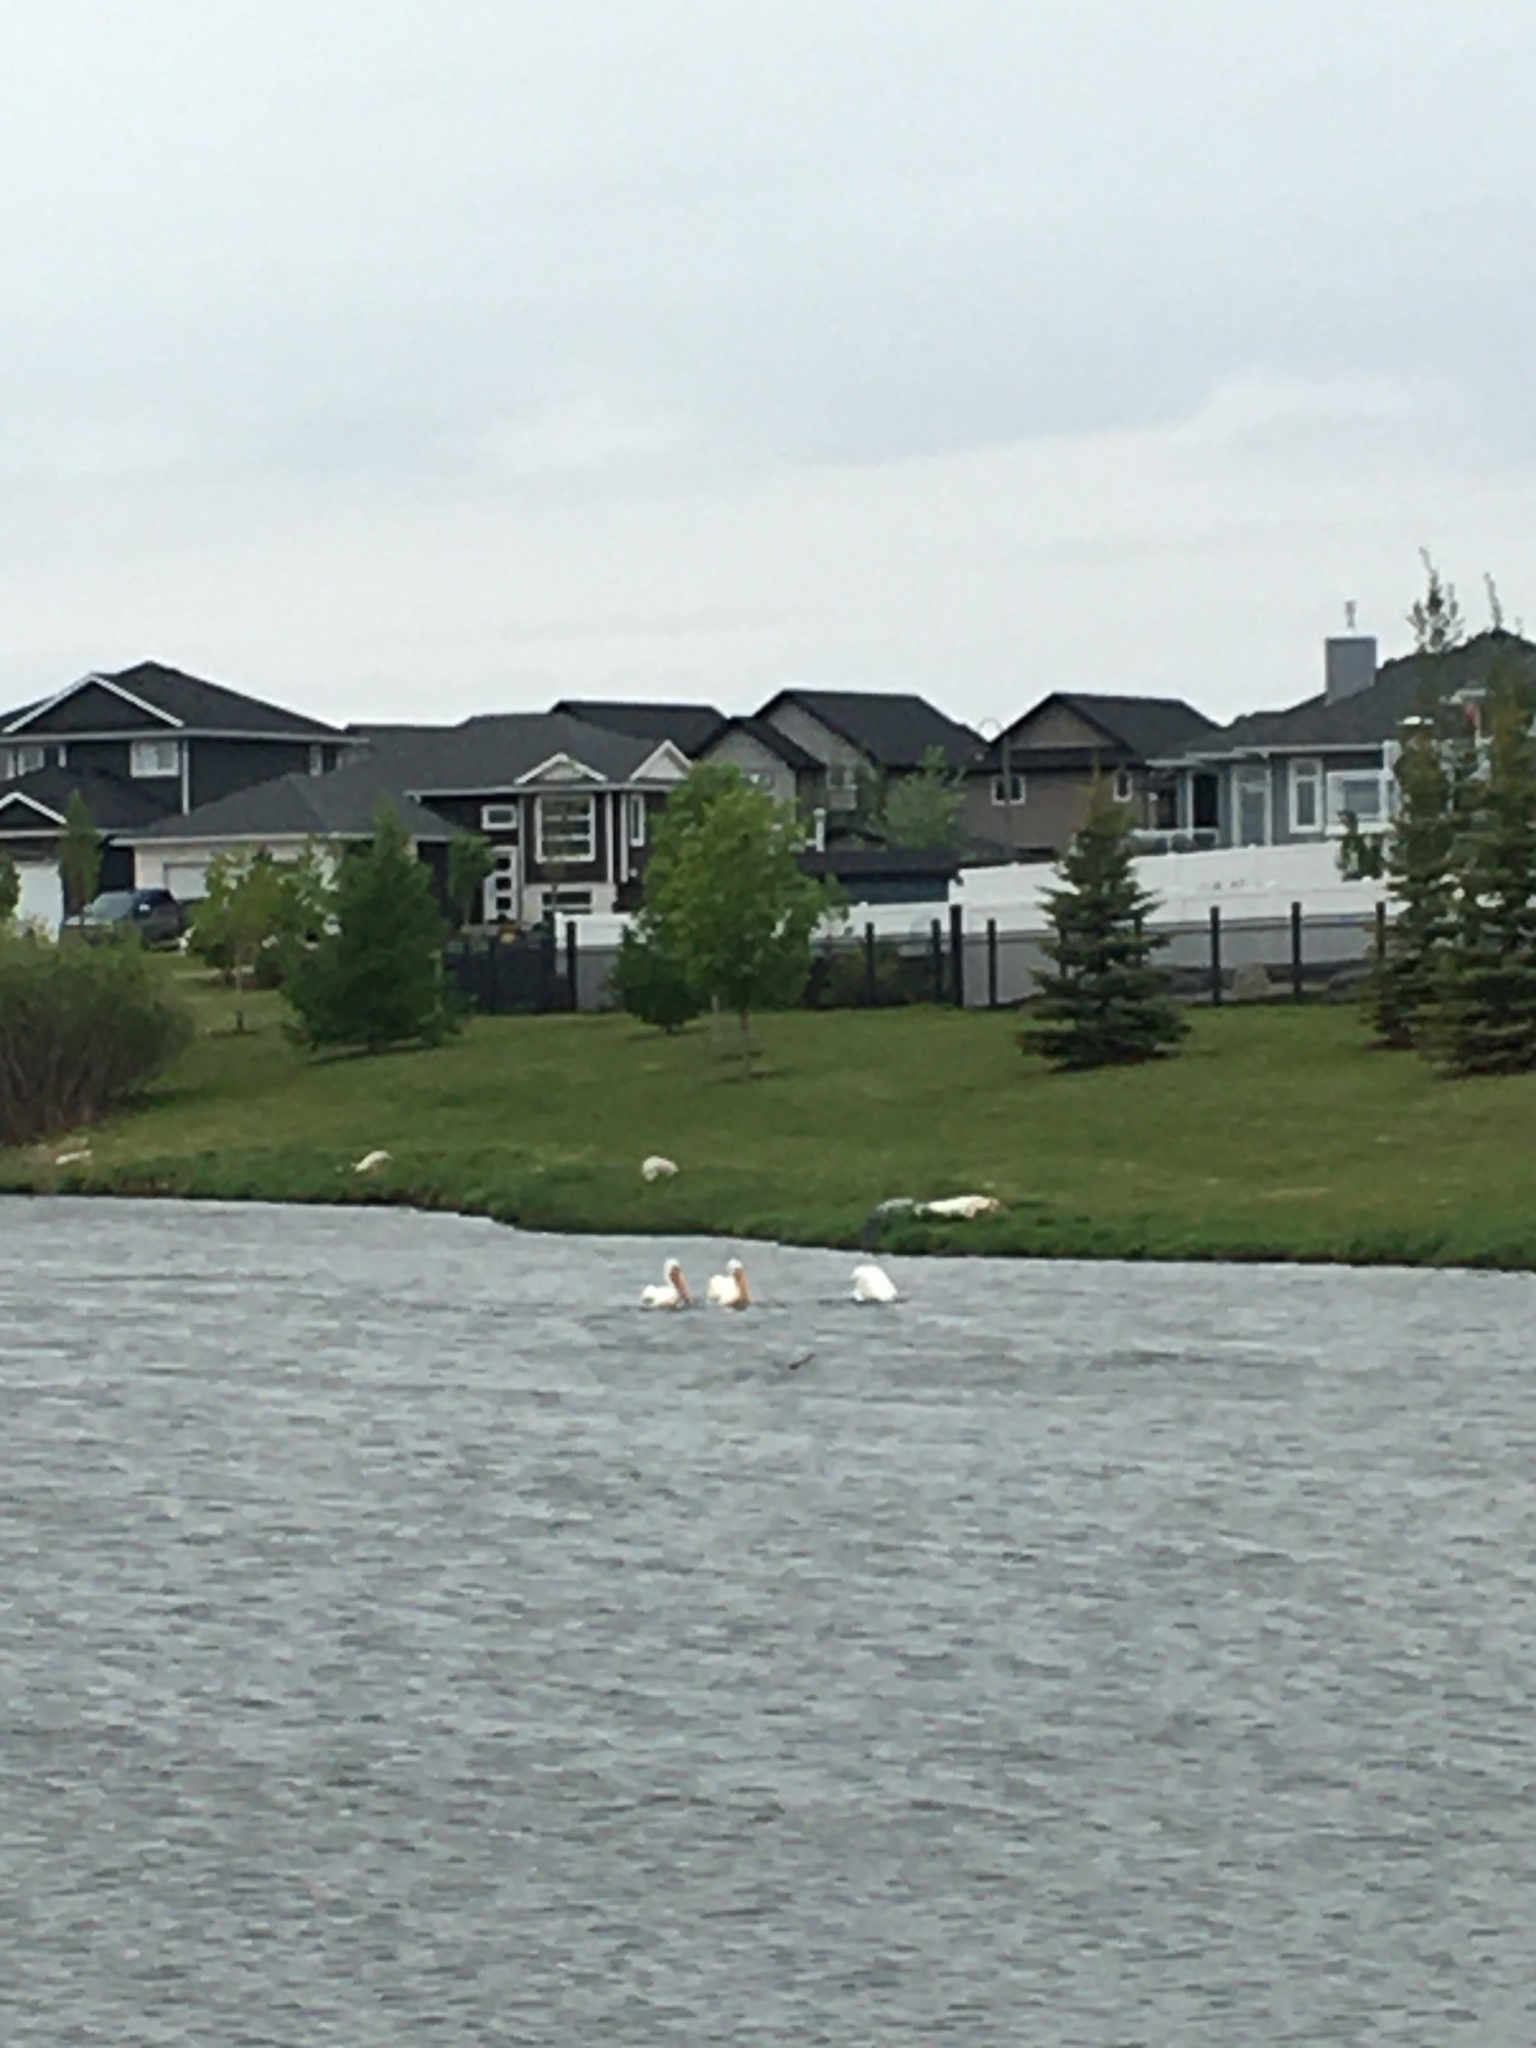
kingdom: Animalia
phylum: Chordata
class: Aves
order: Pelecaniformes
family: Pelecanidae
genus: Pelecanus
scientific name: Pelecanus erythrorhynchos
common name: American white pelican
